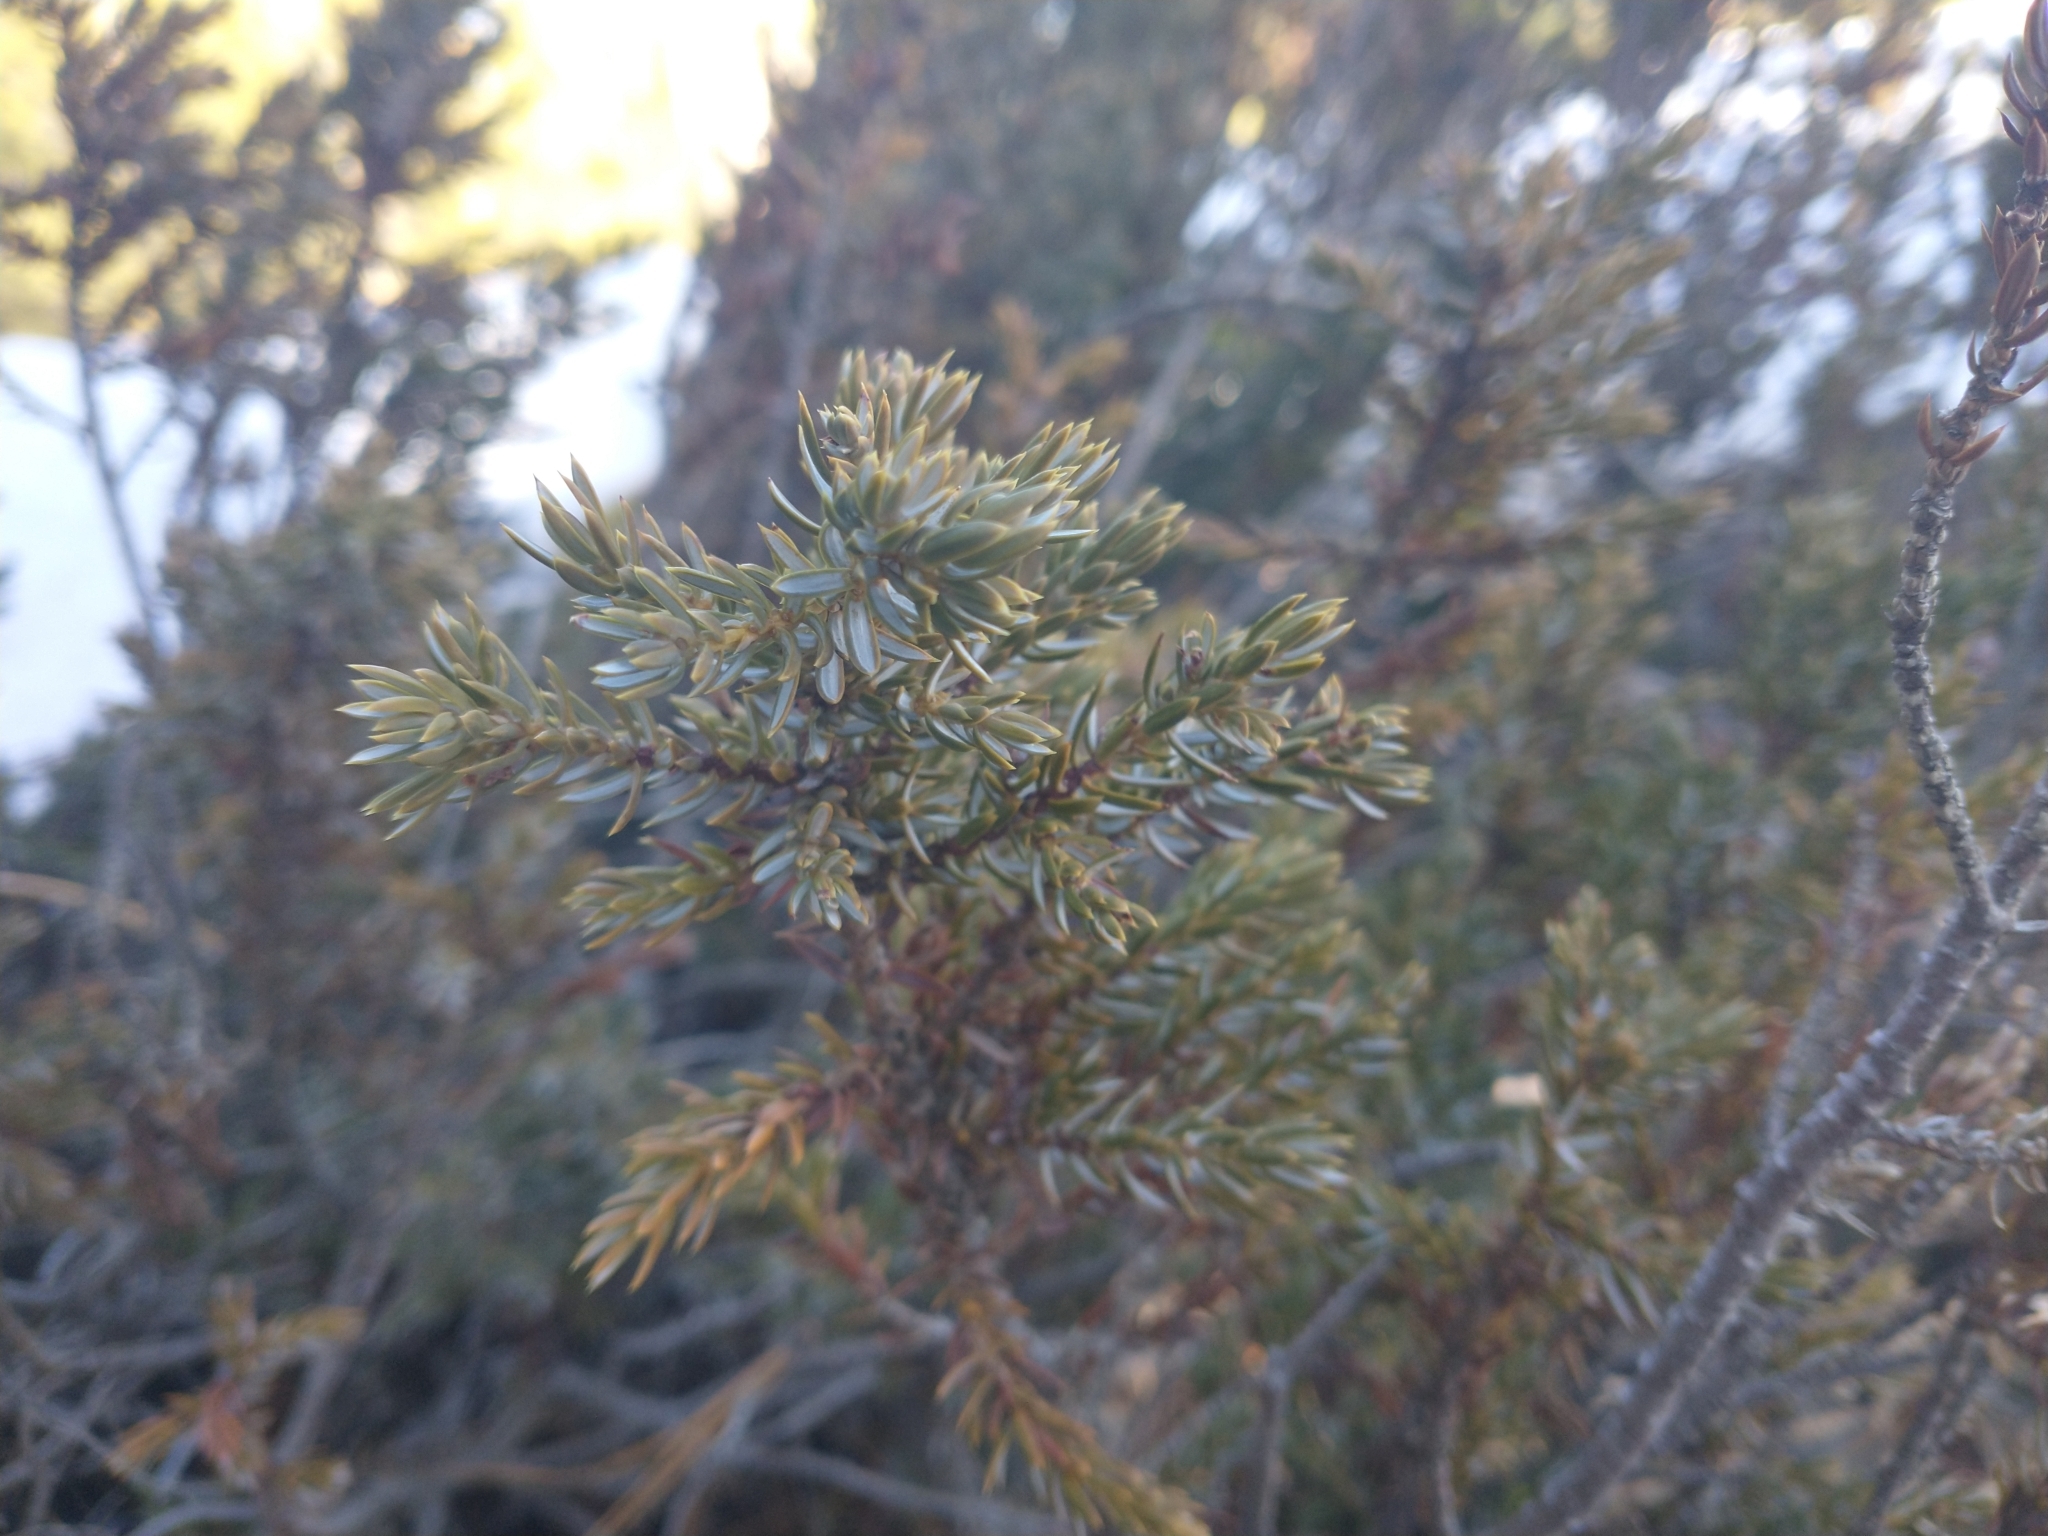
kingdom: Plantae
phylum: Tracheophyta
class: Pinopsida
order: Pinales
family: Cupressaceae
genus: Juniperus
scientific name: Juniperus communis
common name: Common juniper
